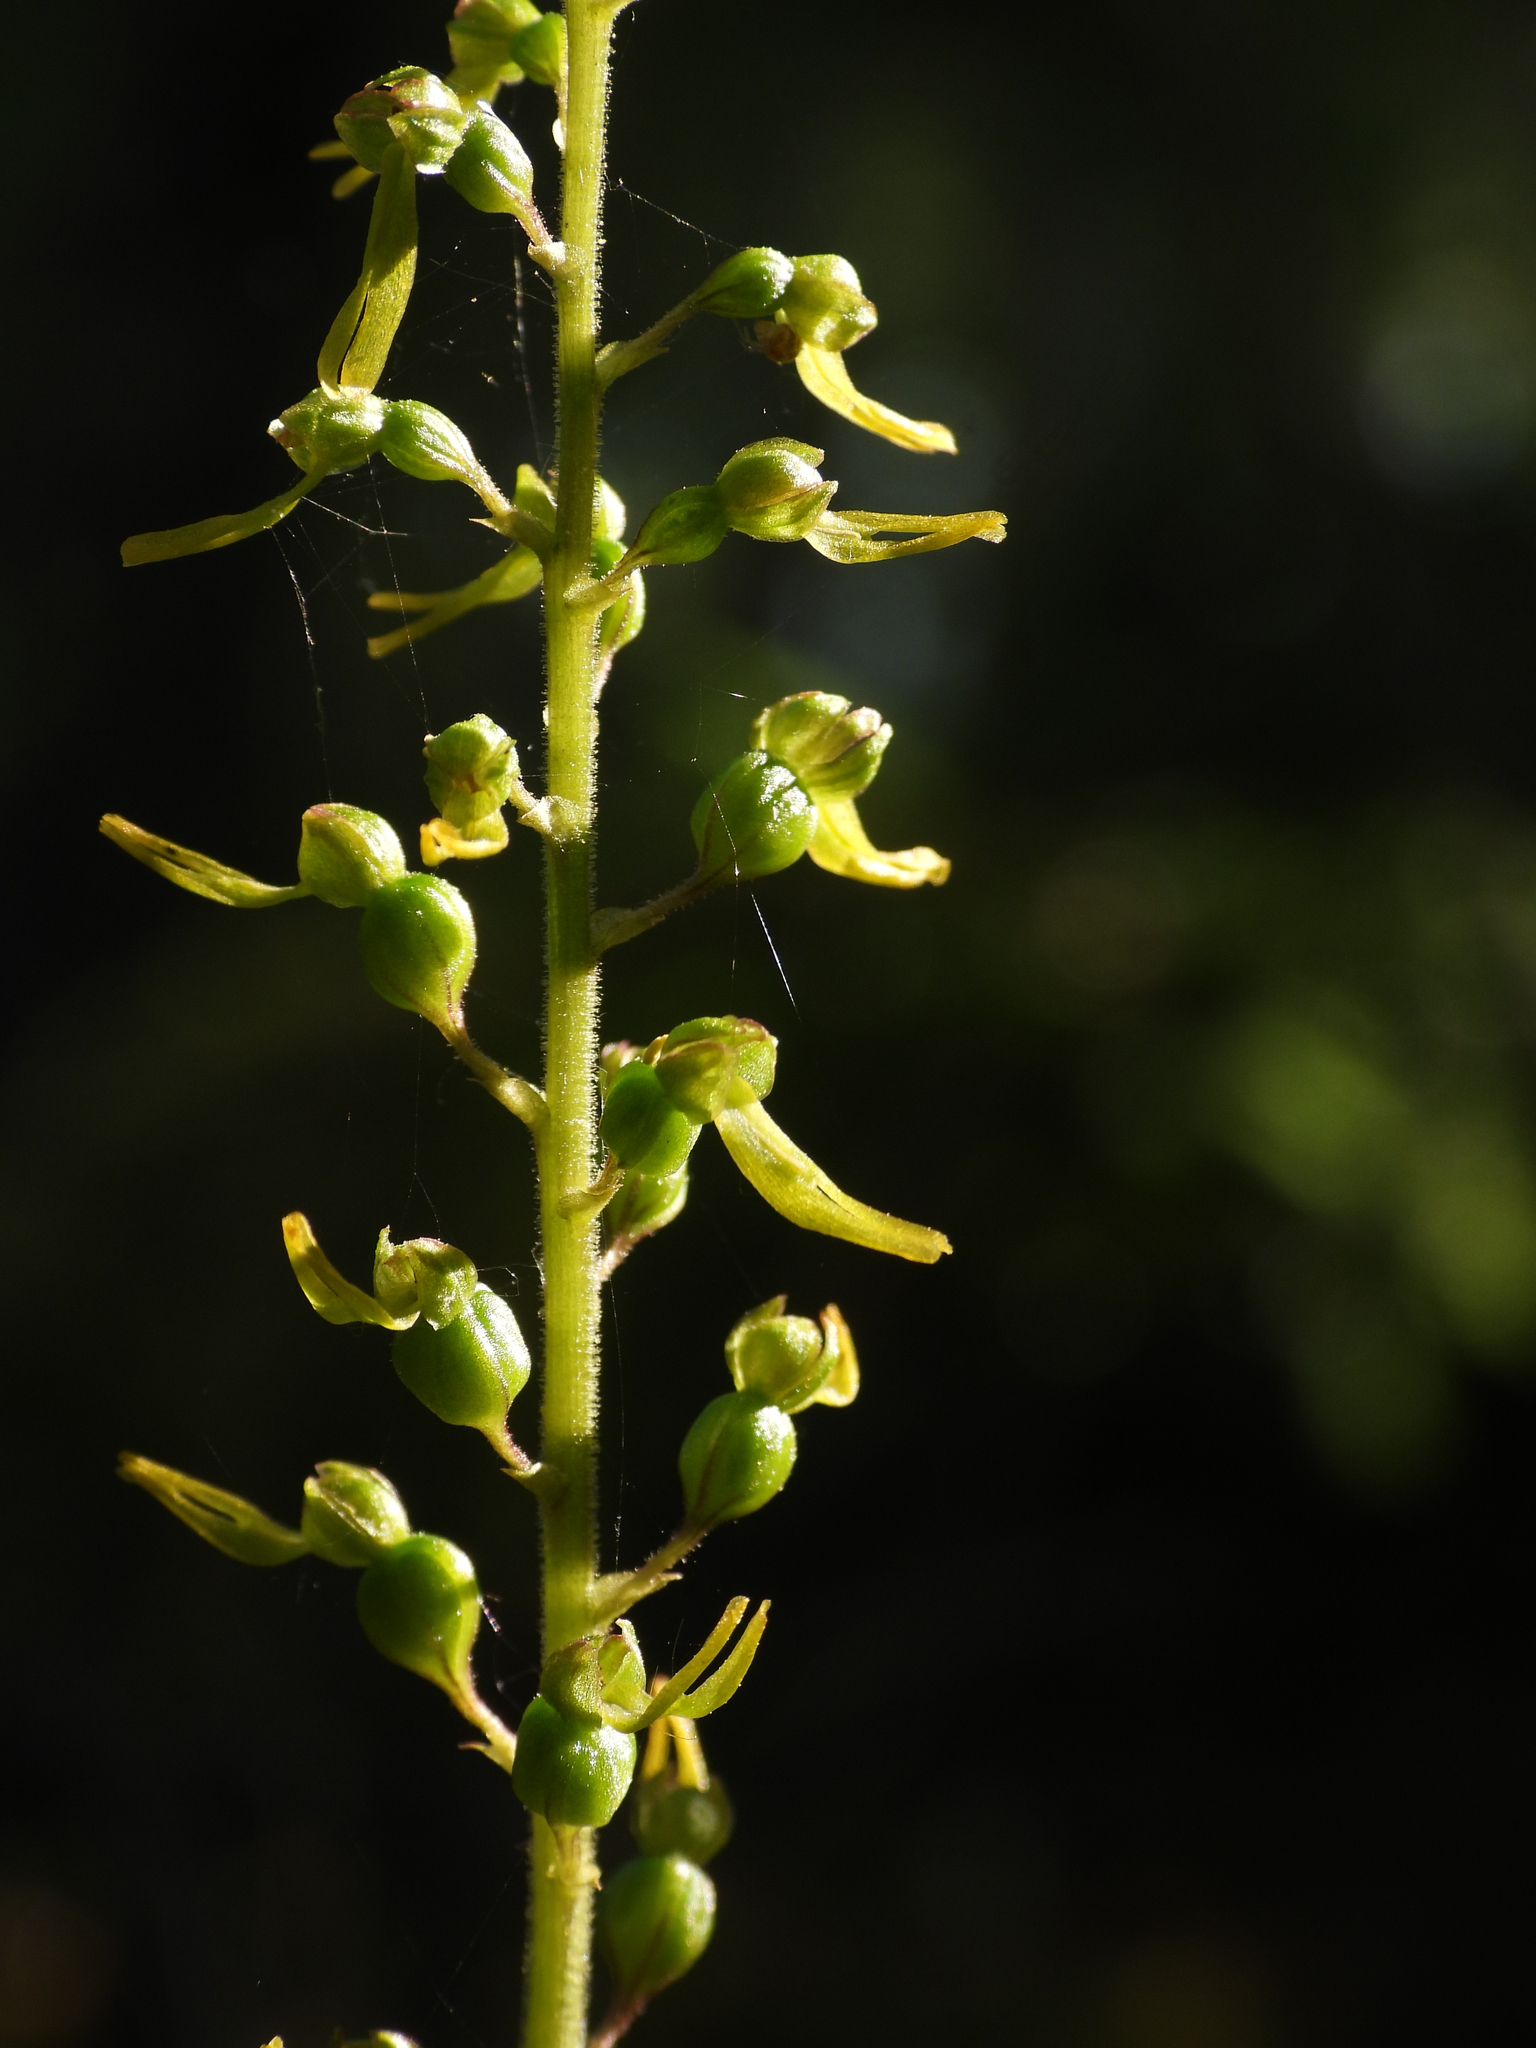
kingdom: Plantae
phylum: Tracheophyta
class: Liliopsida
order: Asparagales
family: Orchidaceae
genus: Neottia
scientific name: Neottia ovata
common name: Common twayblade
